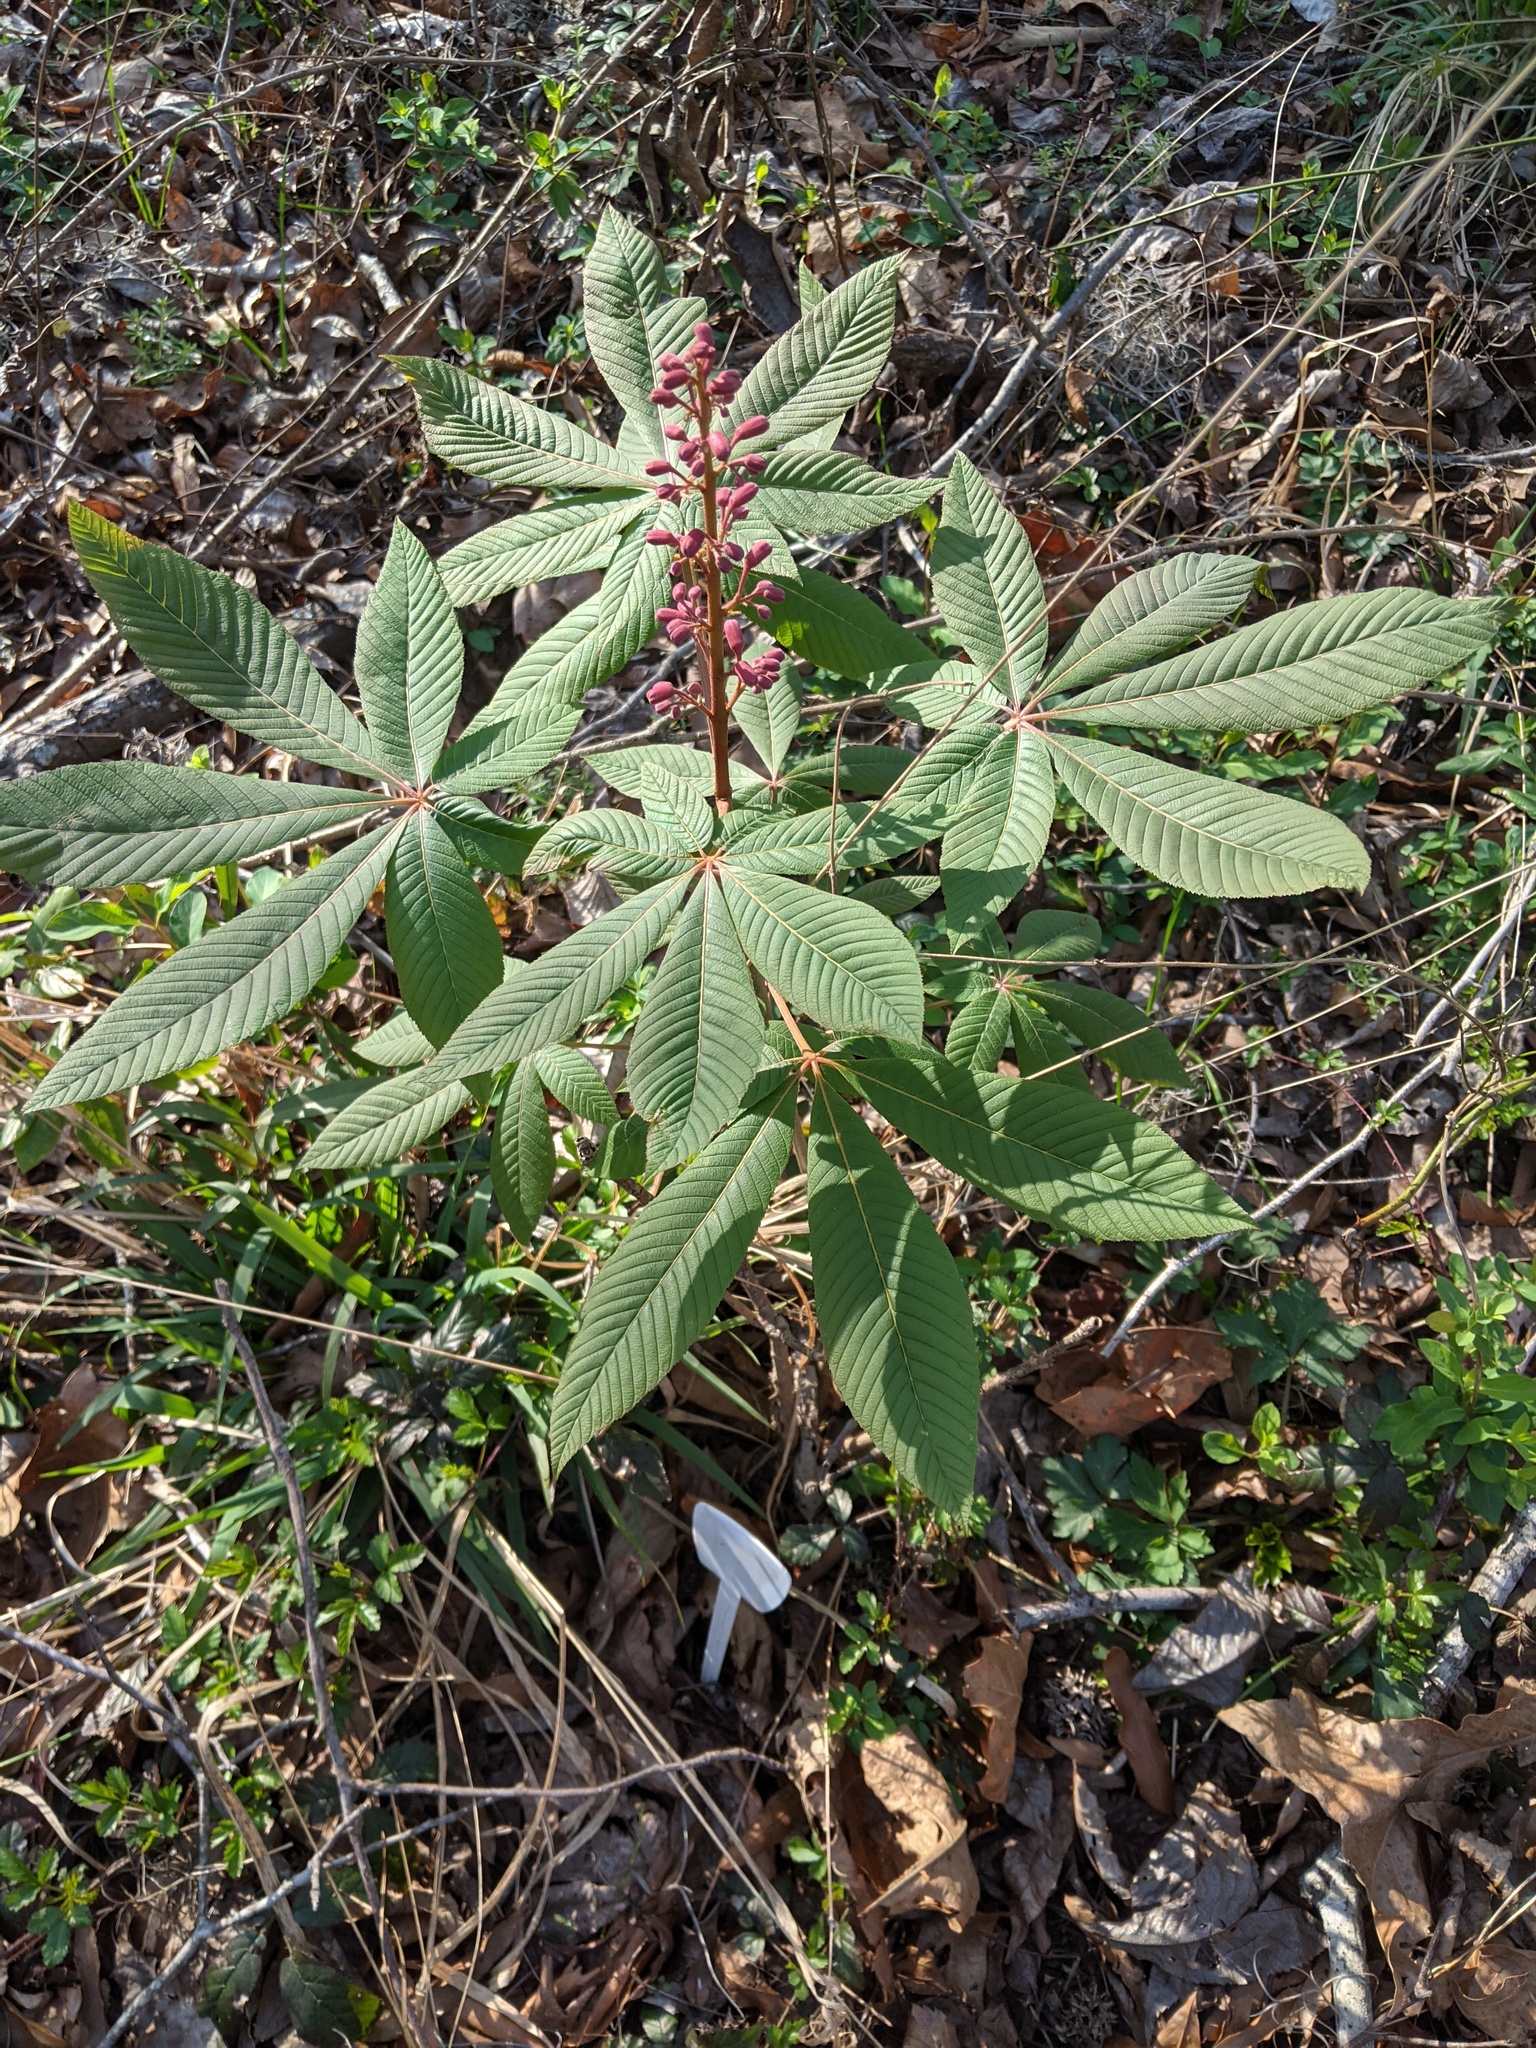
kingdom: Plantae
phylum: Tracheophyta
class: Magnoliopsida
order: Sapindales
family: Sapindaceae
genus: Aesculus
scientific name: Aesculus pavia
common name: Red buckeye
